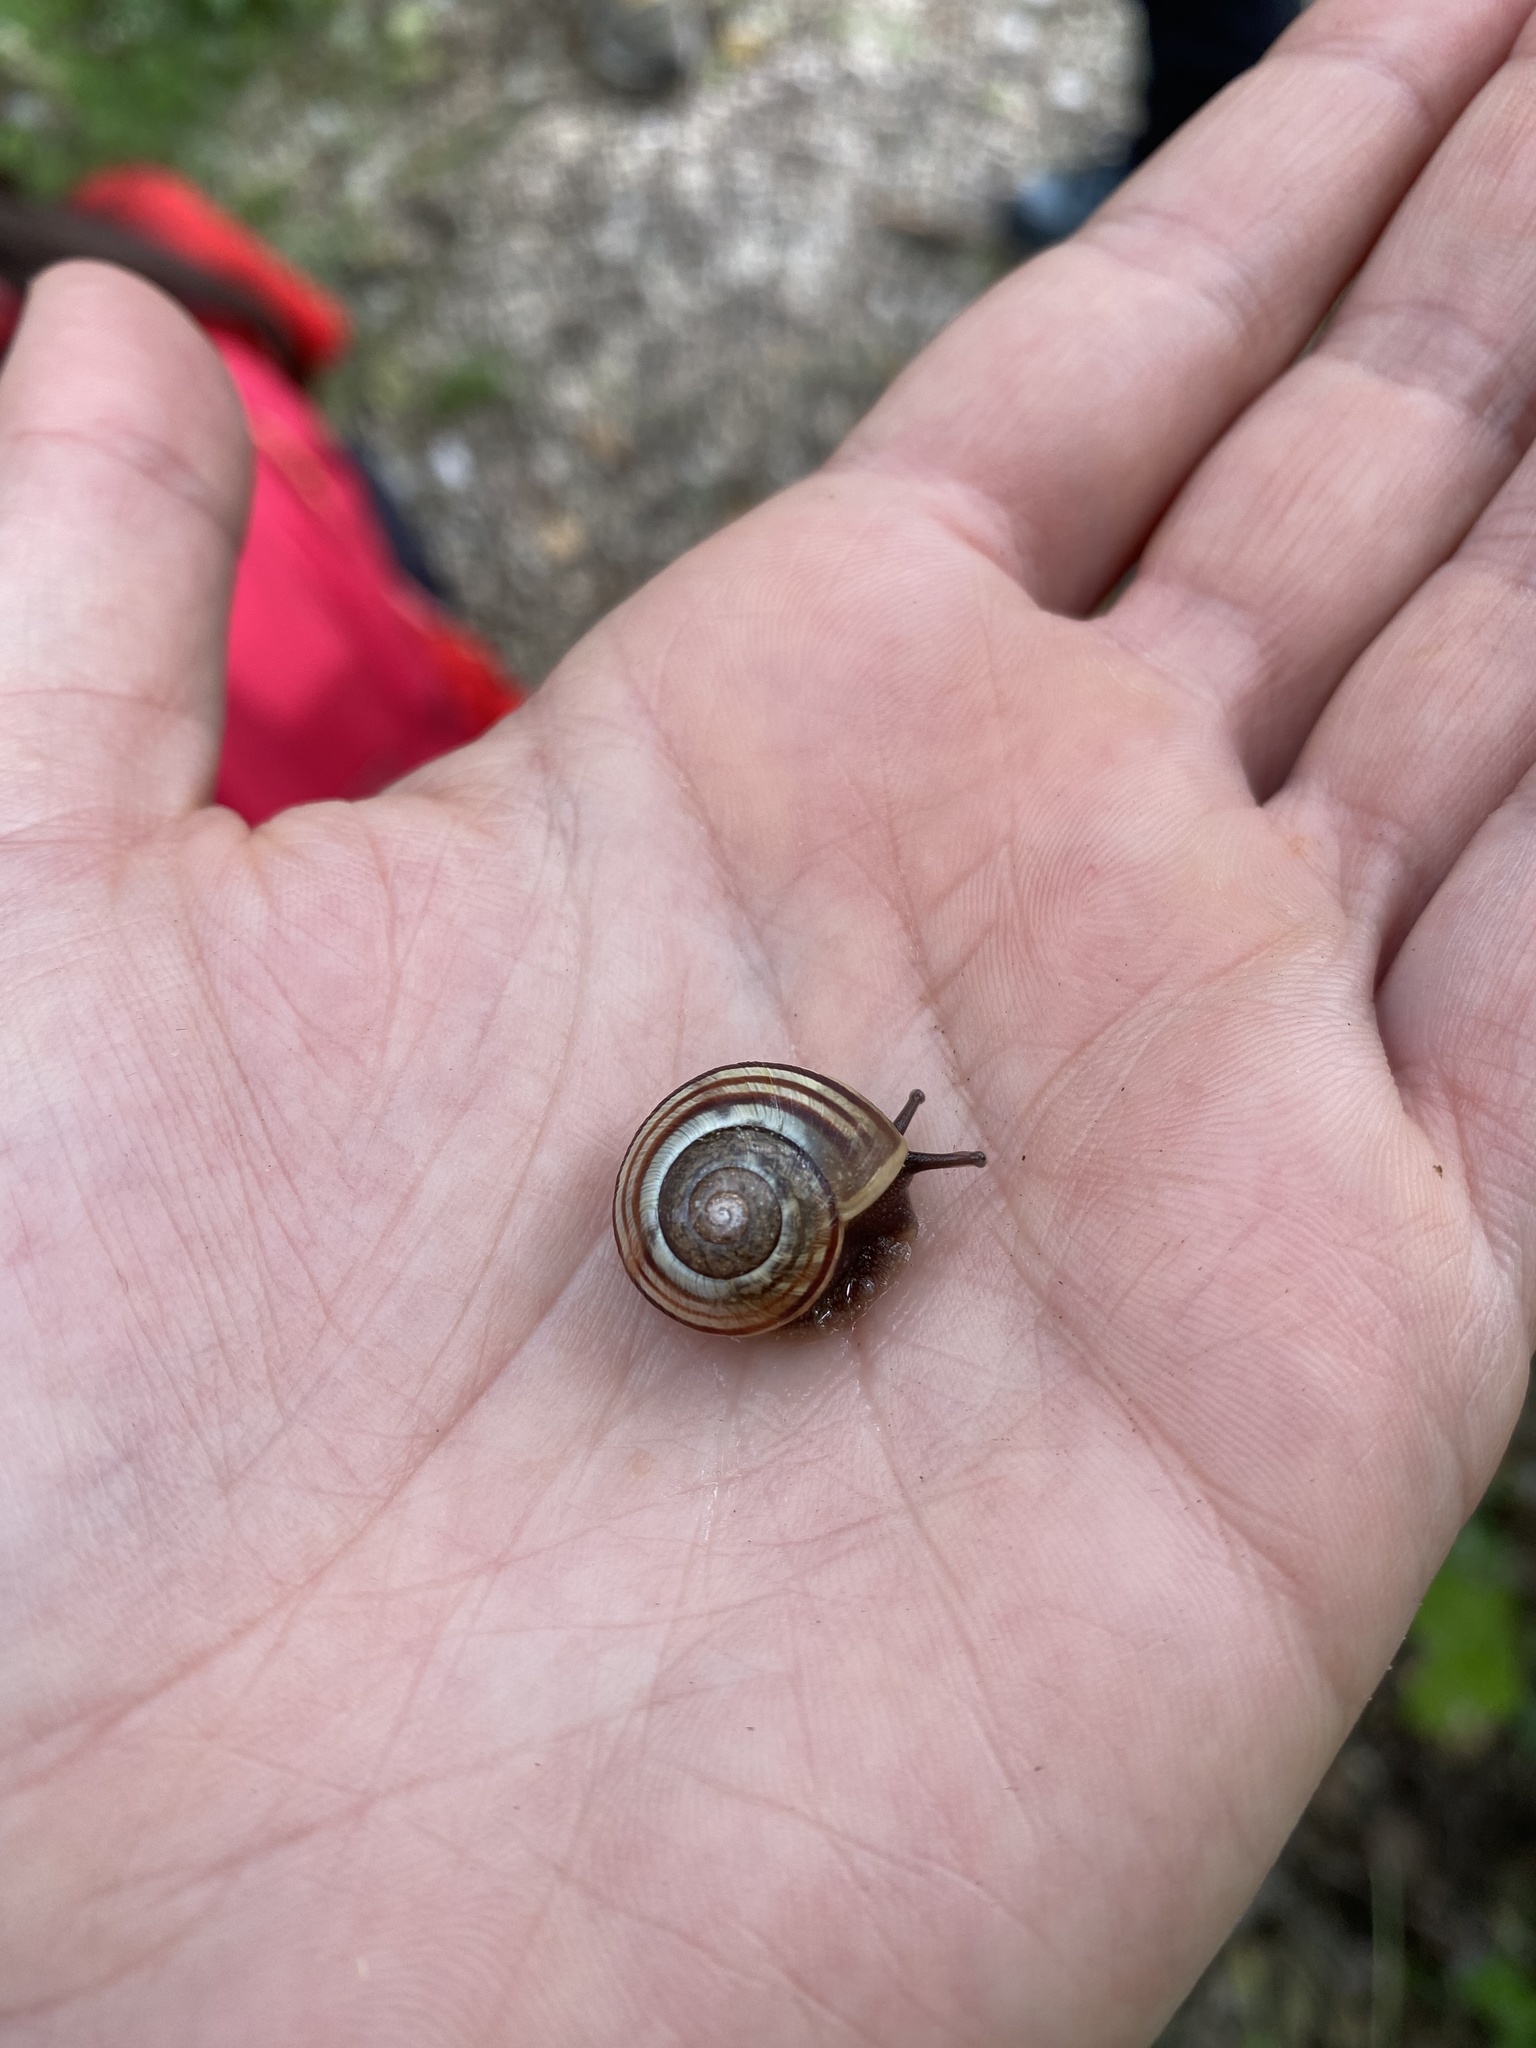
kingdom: Animalia
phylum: Mollusca
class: Gastropoda
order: Stylommatophora
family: Helicidae
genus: Cepaea
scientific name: Cepaea nemoralis
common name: Grovesnail
